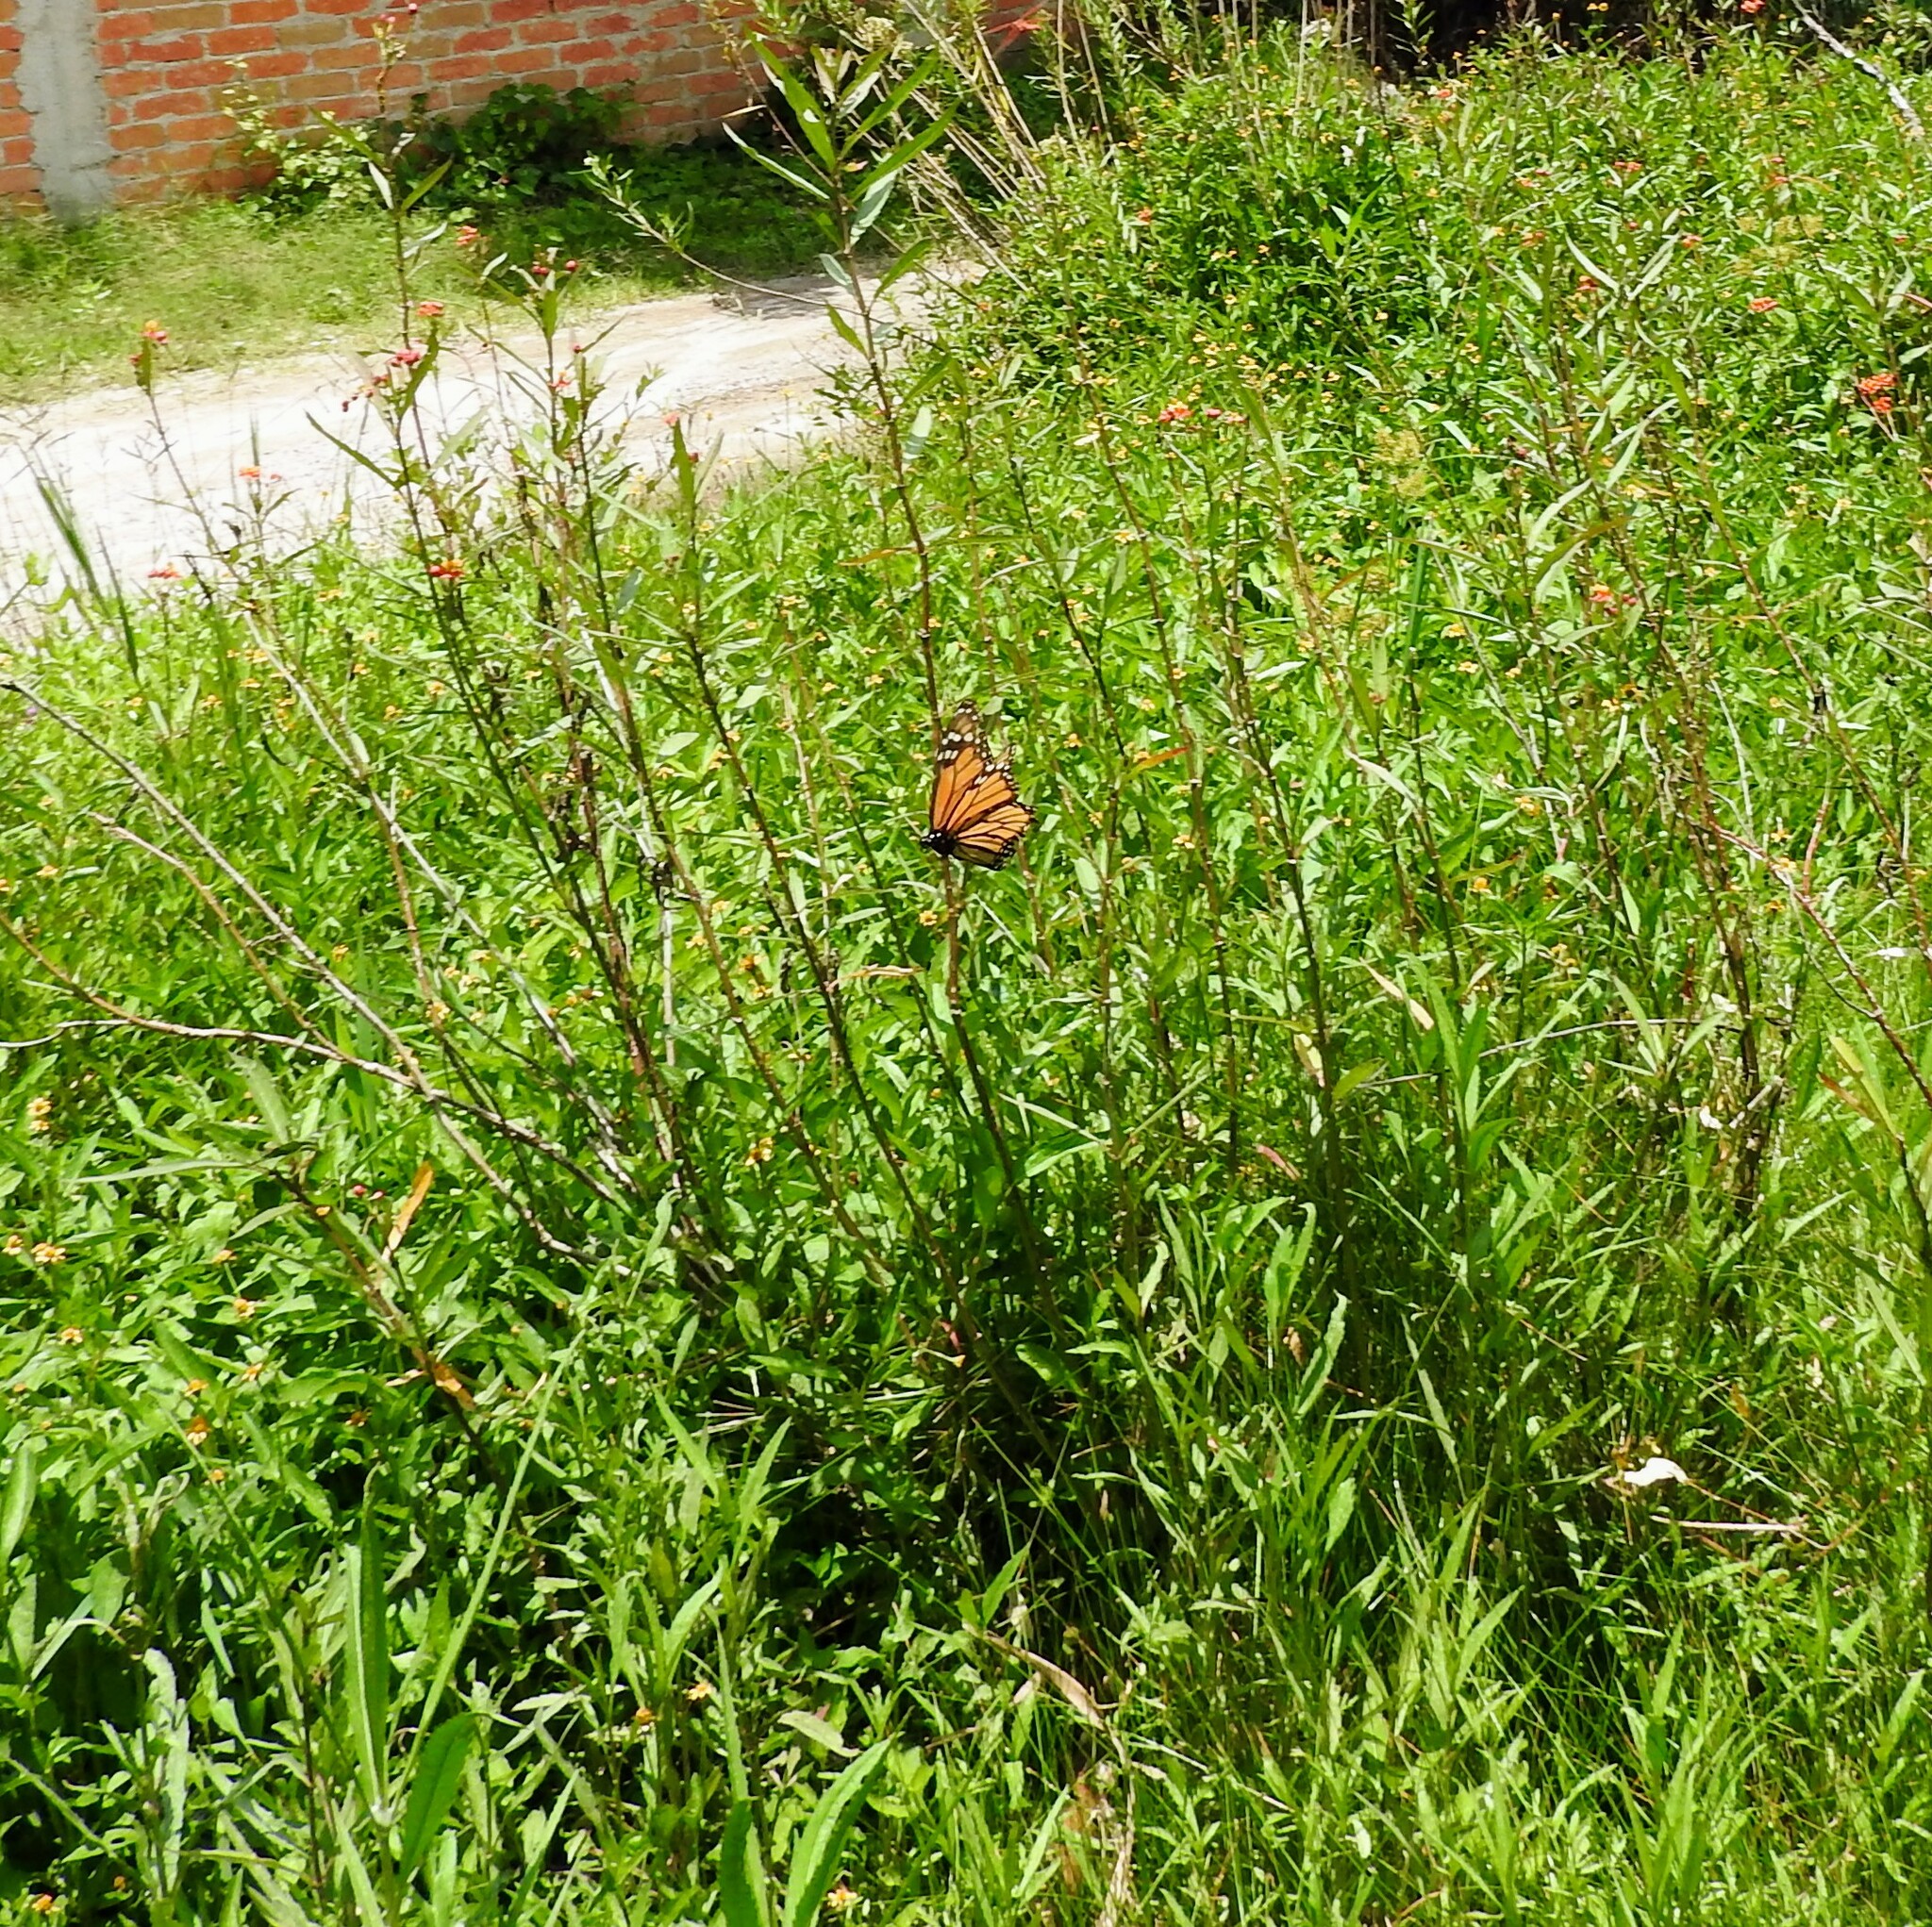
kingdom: Animalia
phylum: Arthropoda
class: Insecta
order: Lepidoptera
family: Nymphalidae
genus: Danaus
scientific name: Danaus plexippus
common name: Monarch
